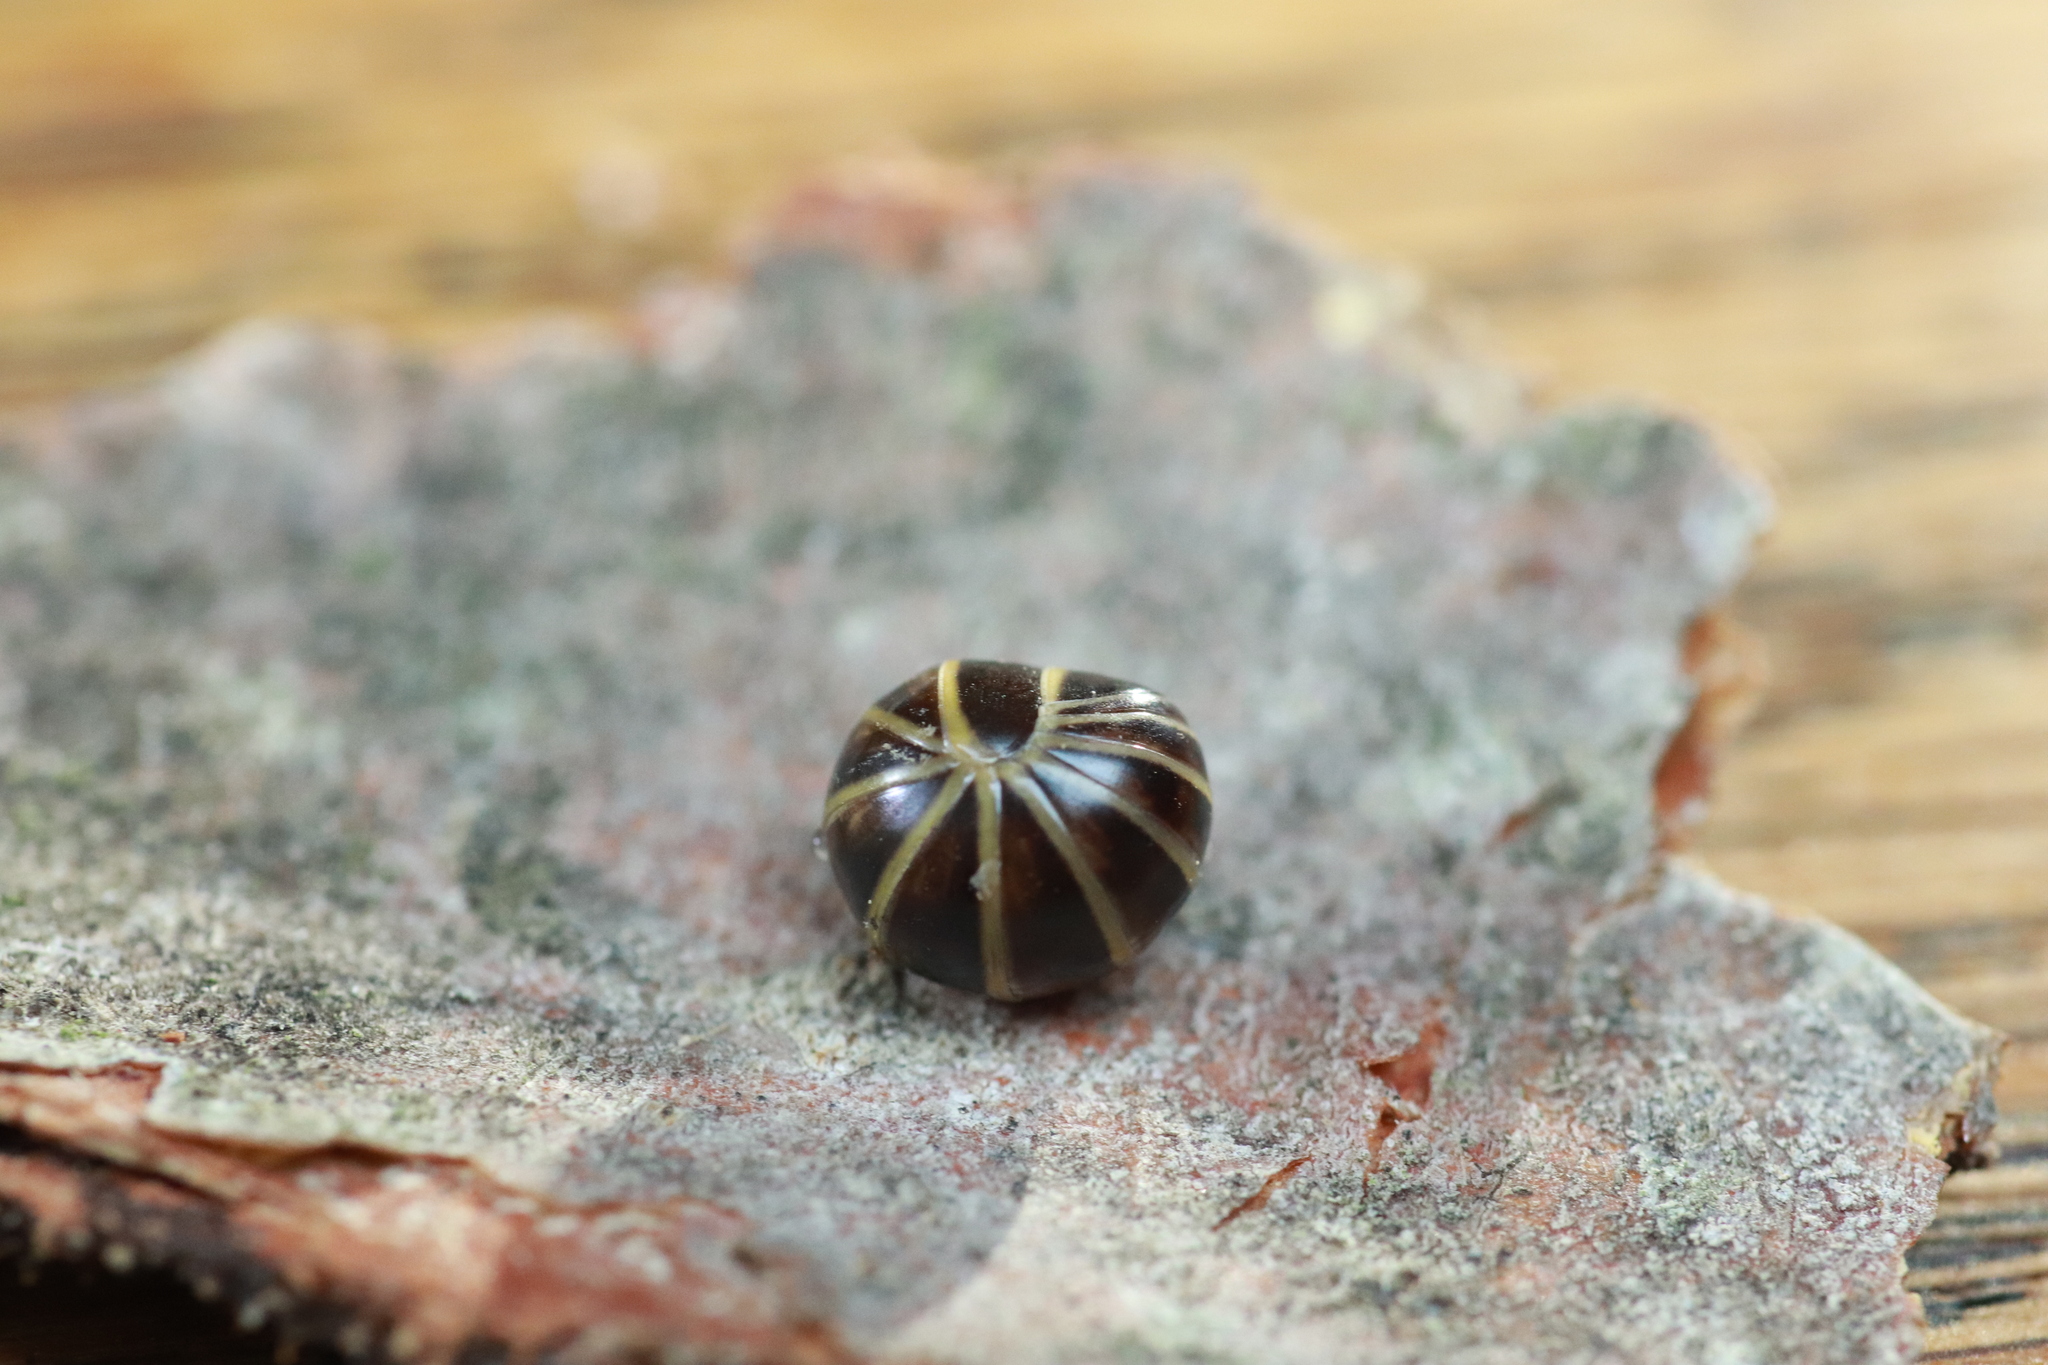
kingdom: Animalia
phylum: Arthropoda
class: Diplopoda
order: Glomerida
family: Glomeridae
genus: Glomeris
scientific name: Glomeris marginata
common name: Bordered pill millipede
